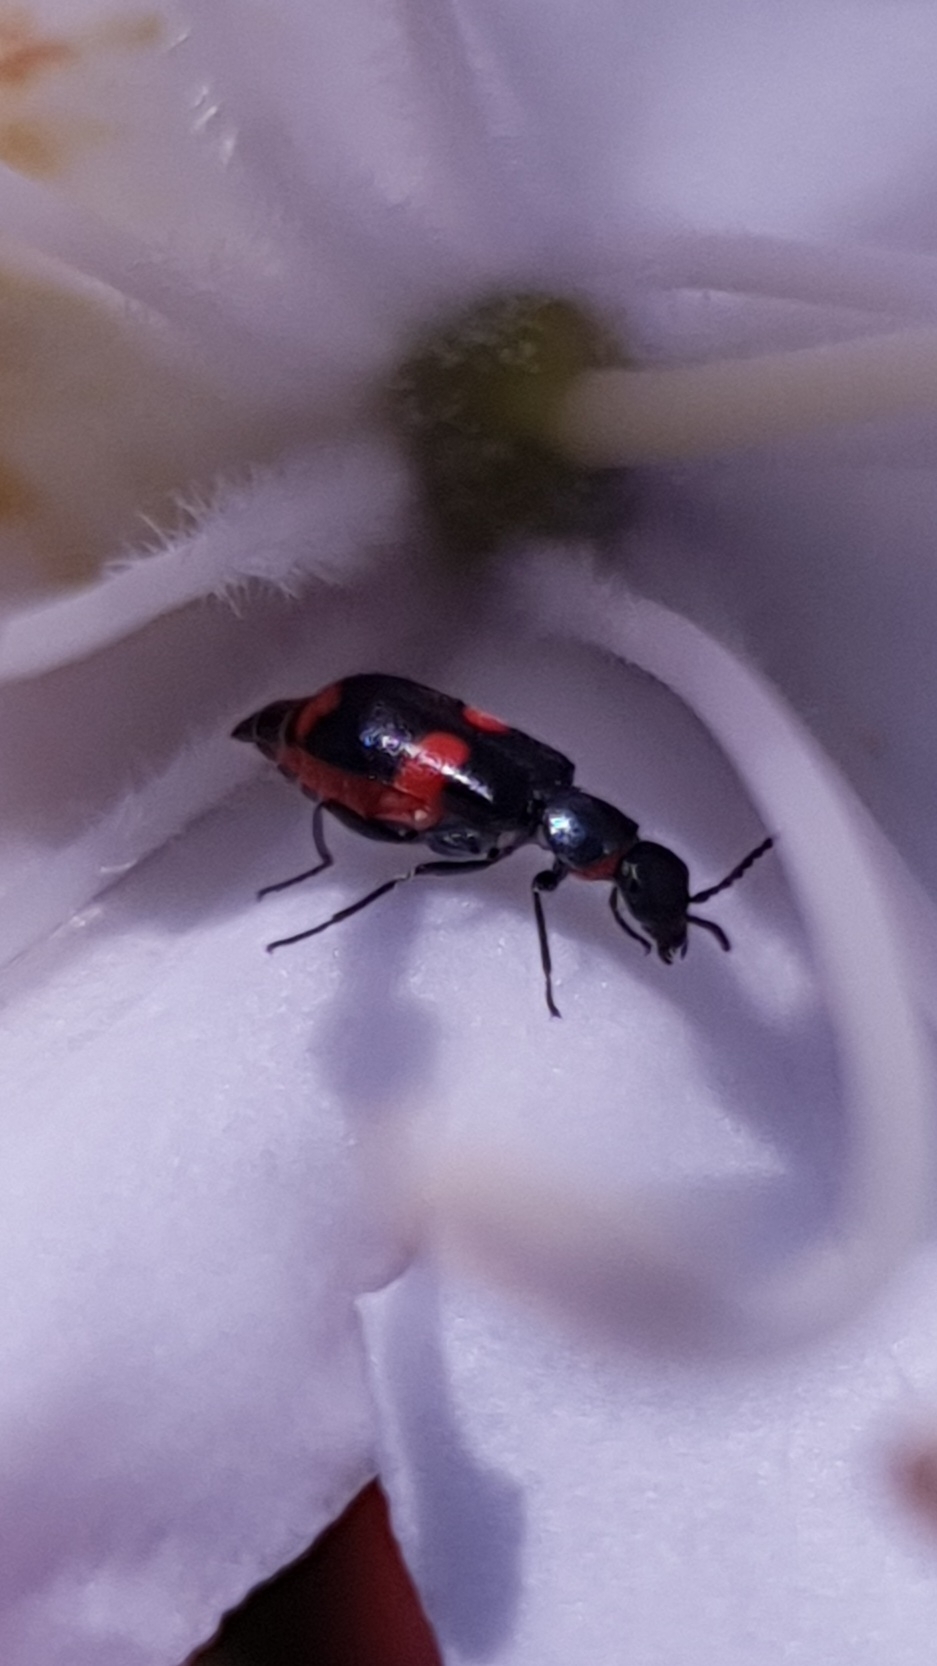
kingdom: Animalia
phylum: Arthropoda
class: Insecta
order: Coleoptera
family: Melyridae
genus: Anthocomus
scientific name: Anthocomus fasciatus
